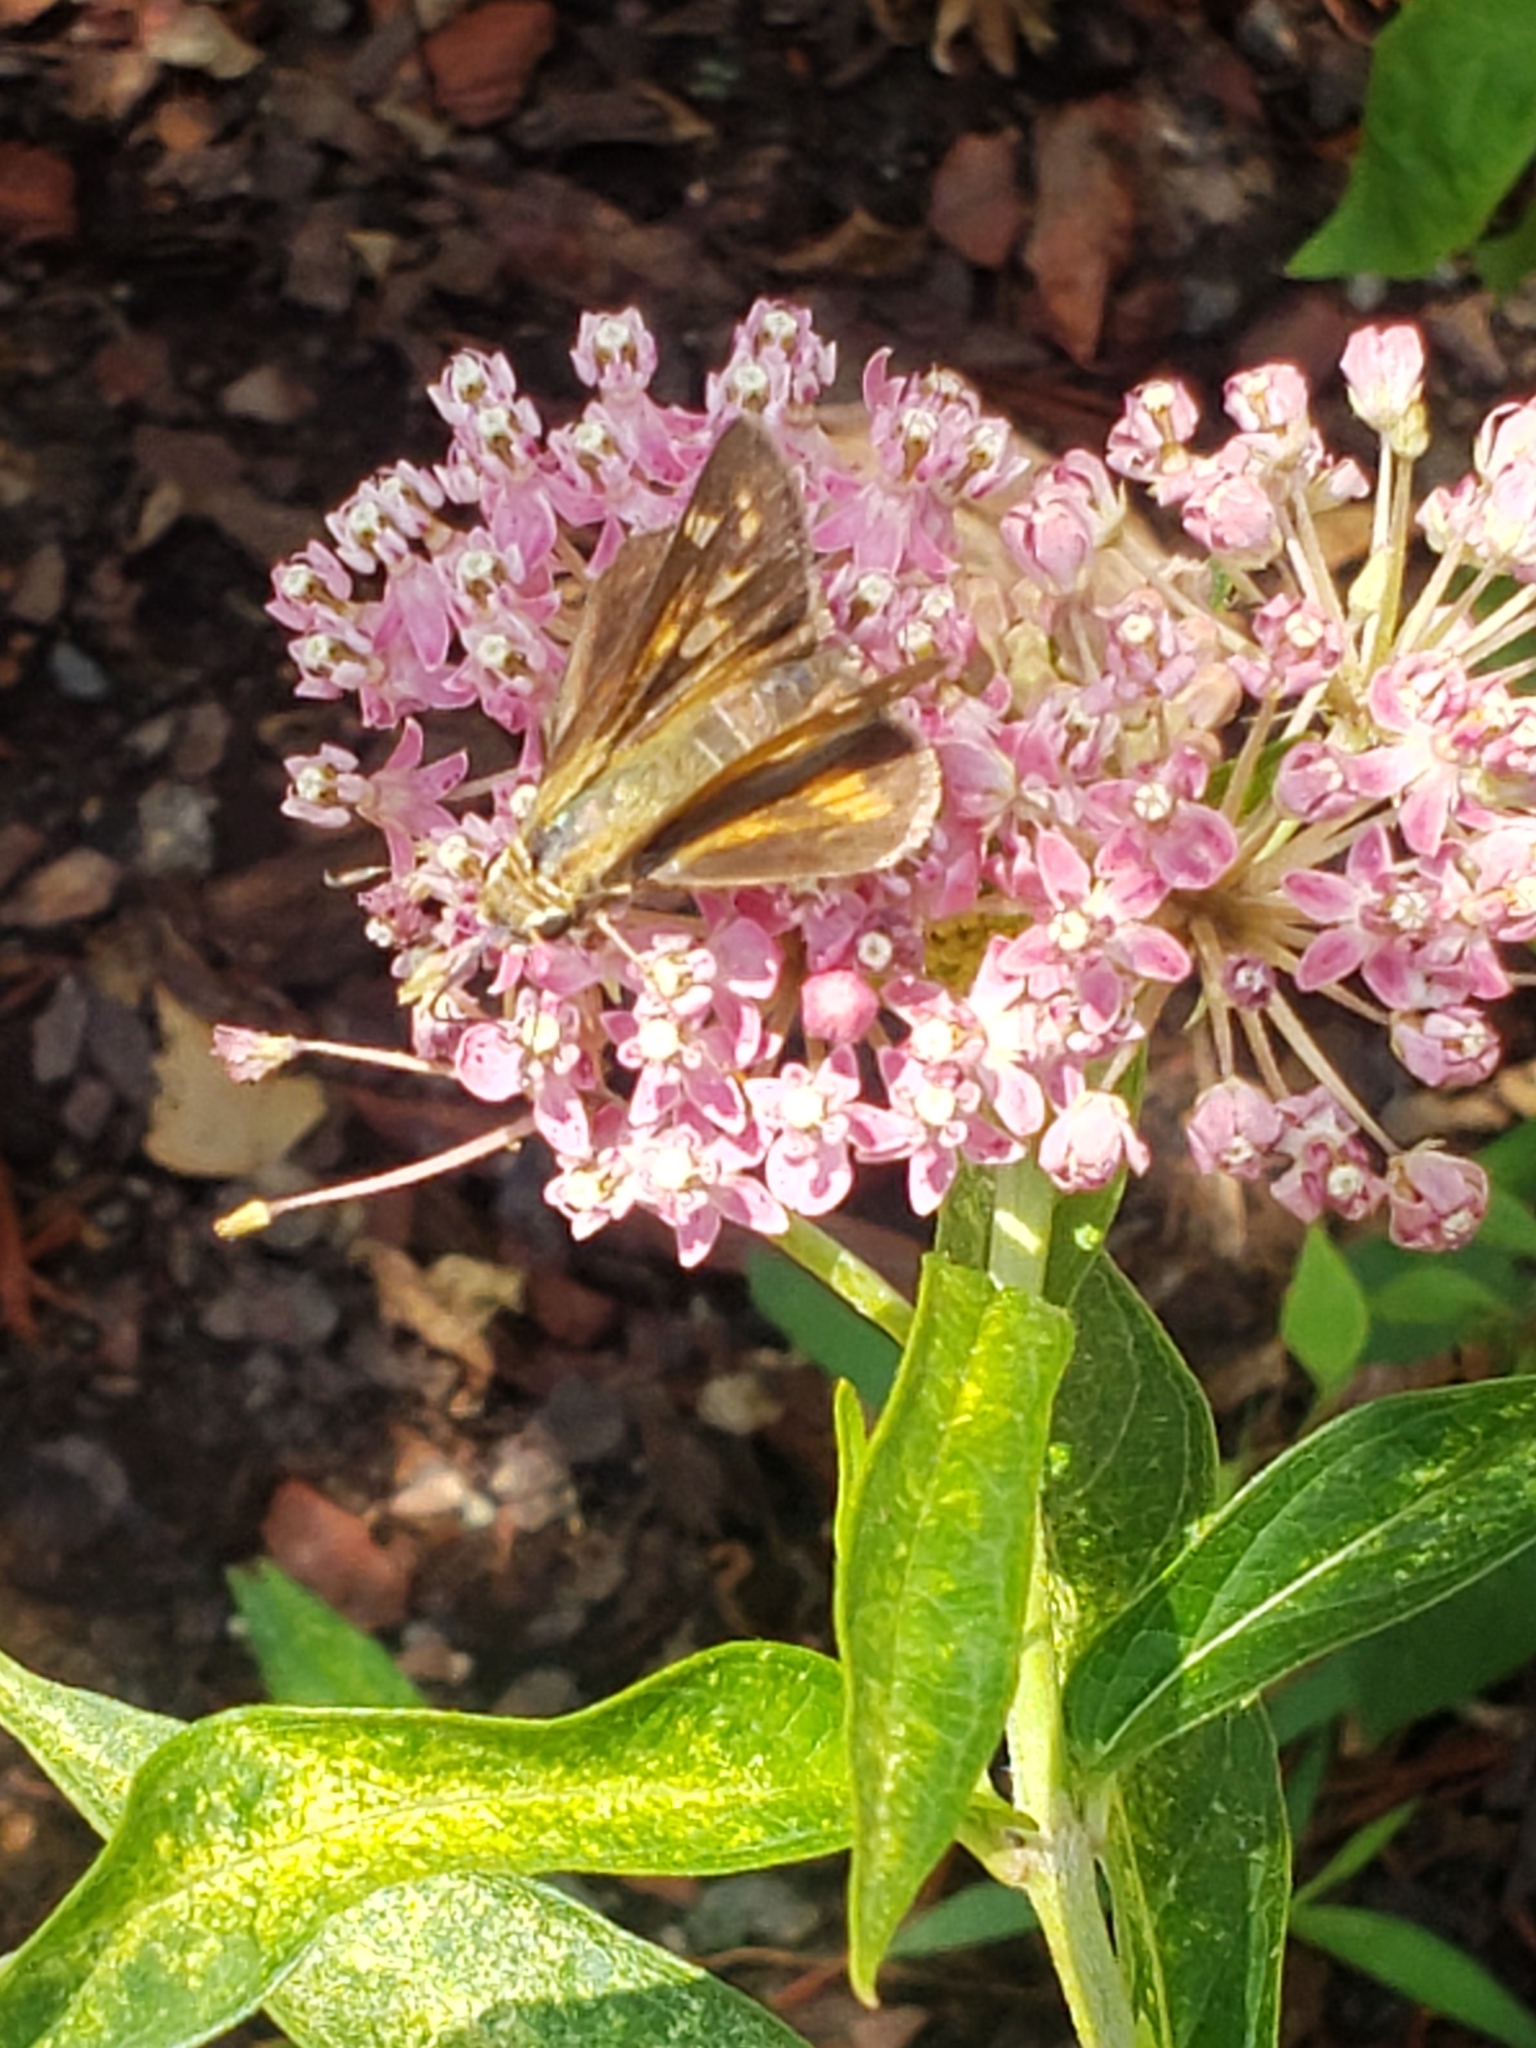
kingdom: Animalia
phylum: Arthropoda
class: Insecta
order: Lepidoptera
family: Hesperiidae
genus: Atalopedes
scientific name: Atalopedes
